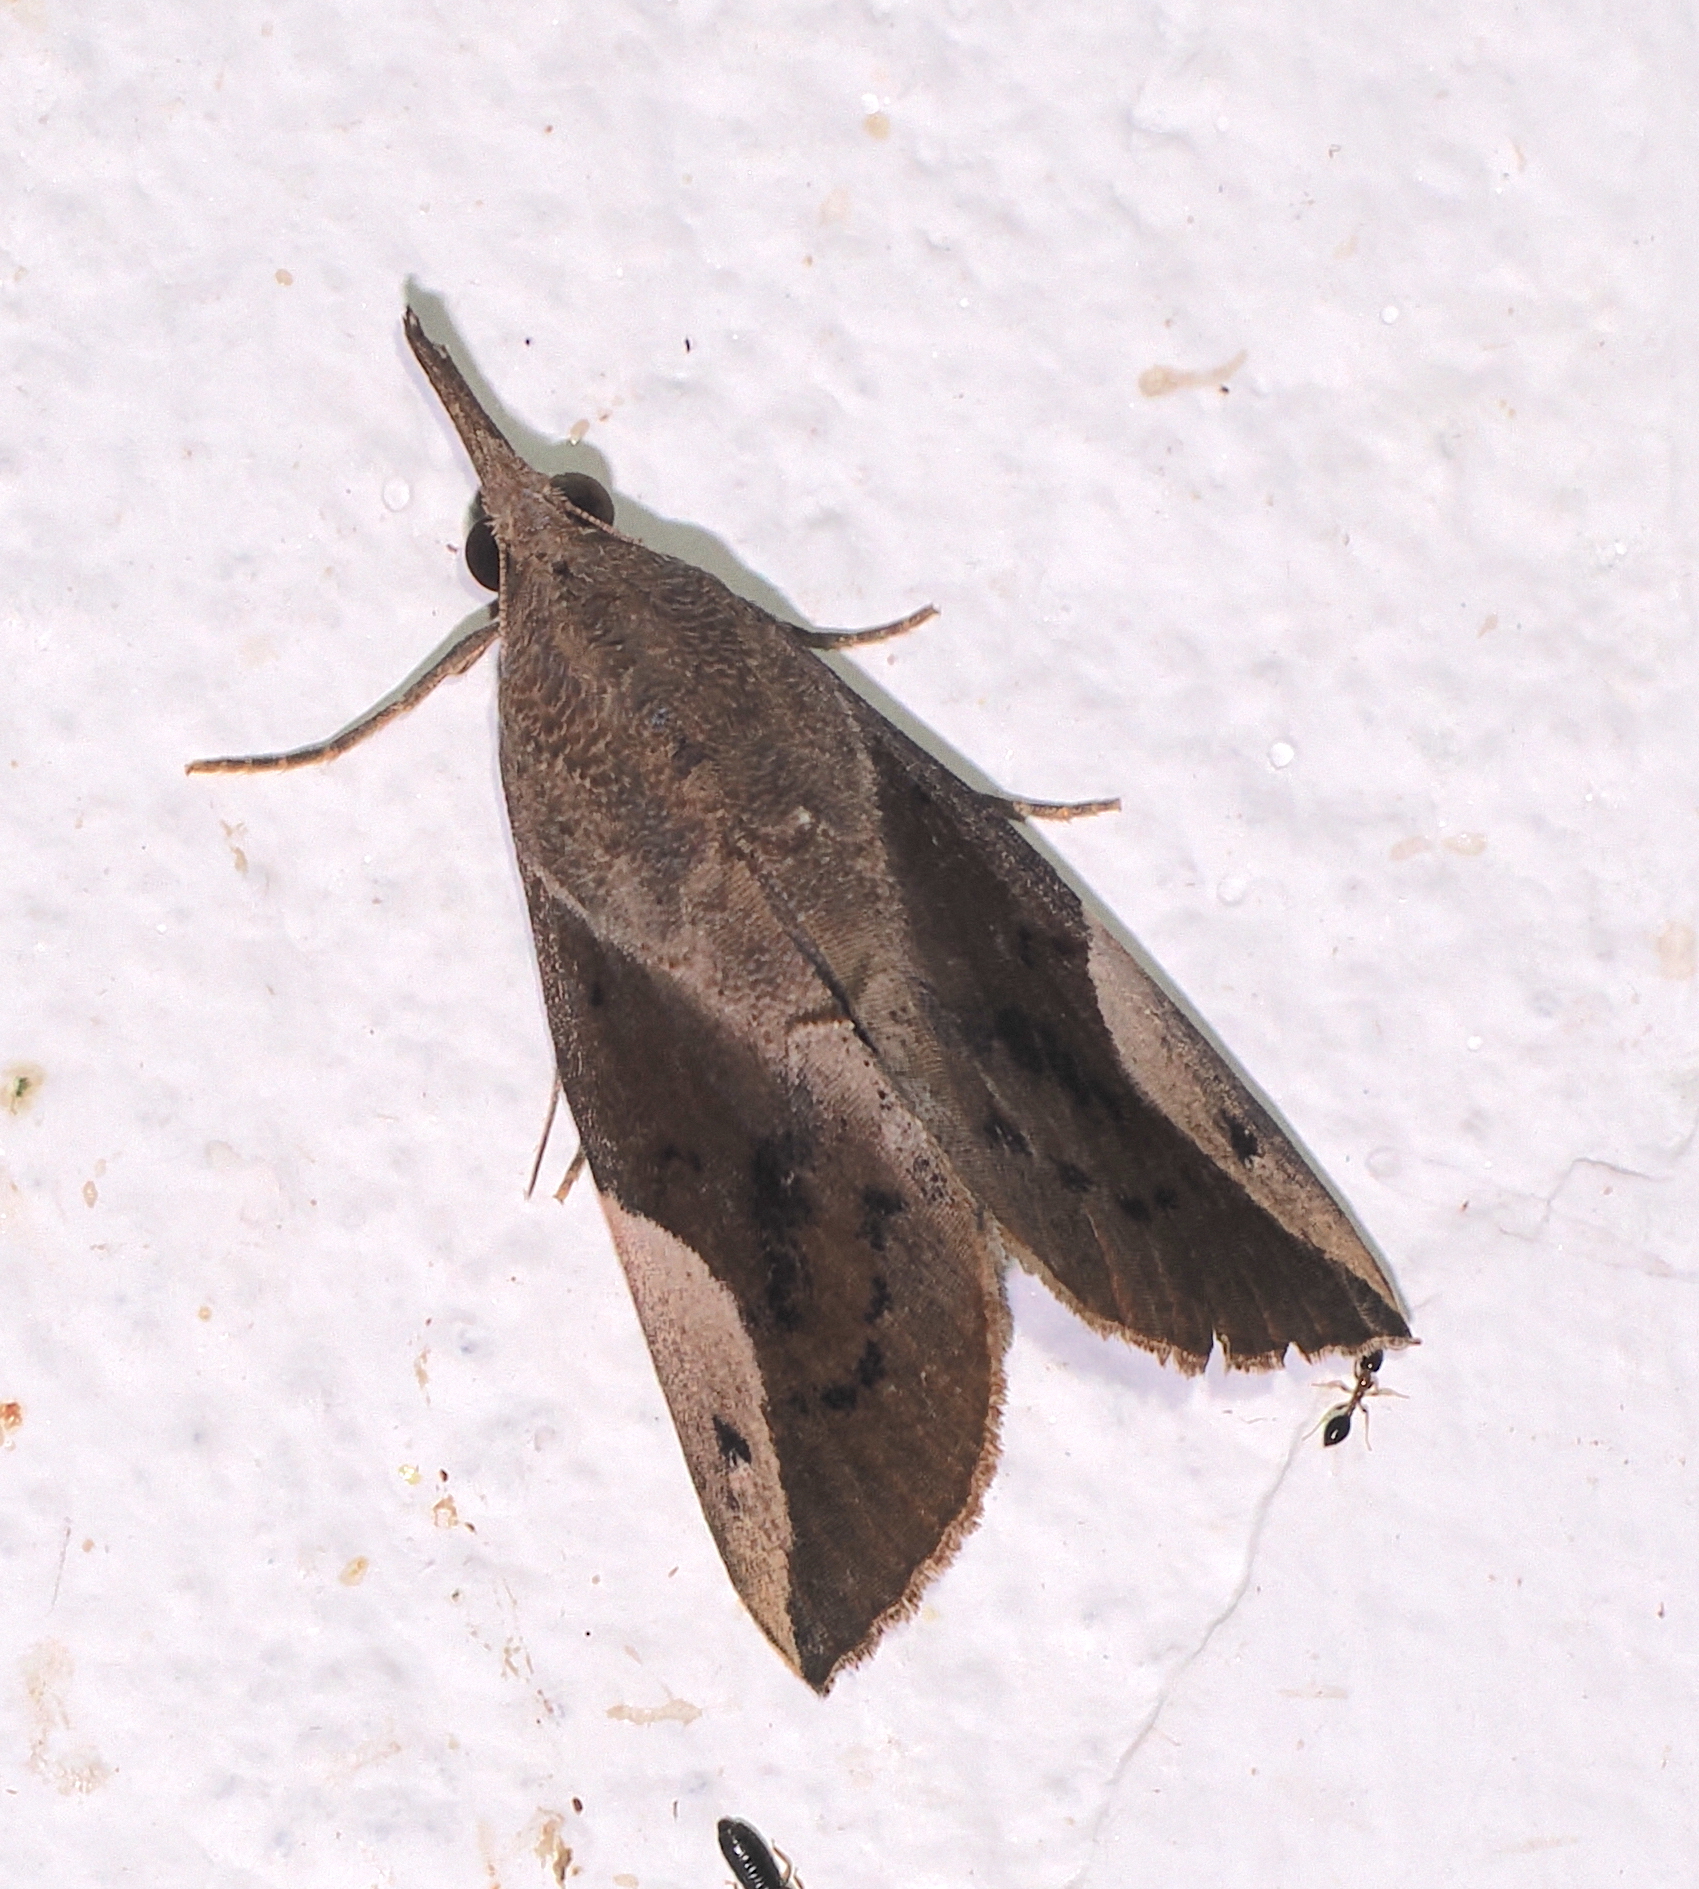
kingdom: Animalia
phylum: Arthropoda
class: Insecta
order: Lepidoptera
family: Erebidae
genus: Hypena
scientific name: Hypena mactatalis
